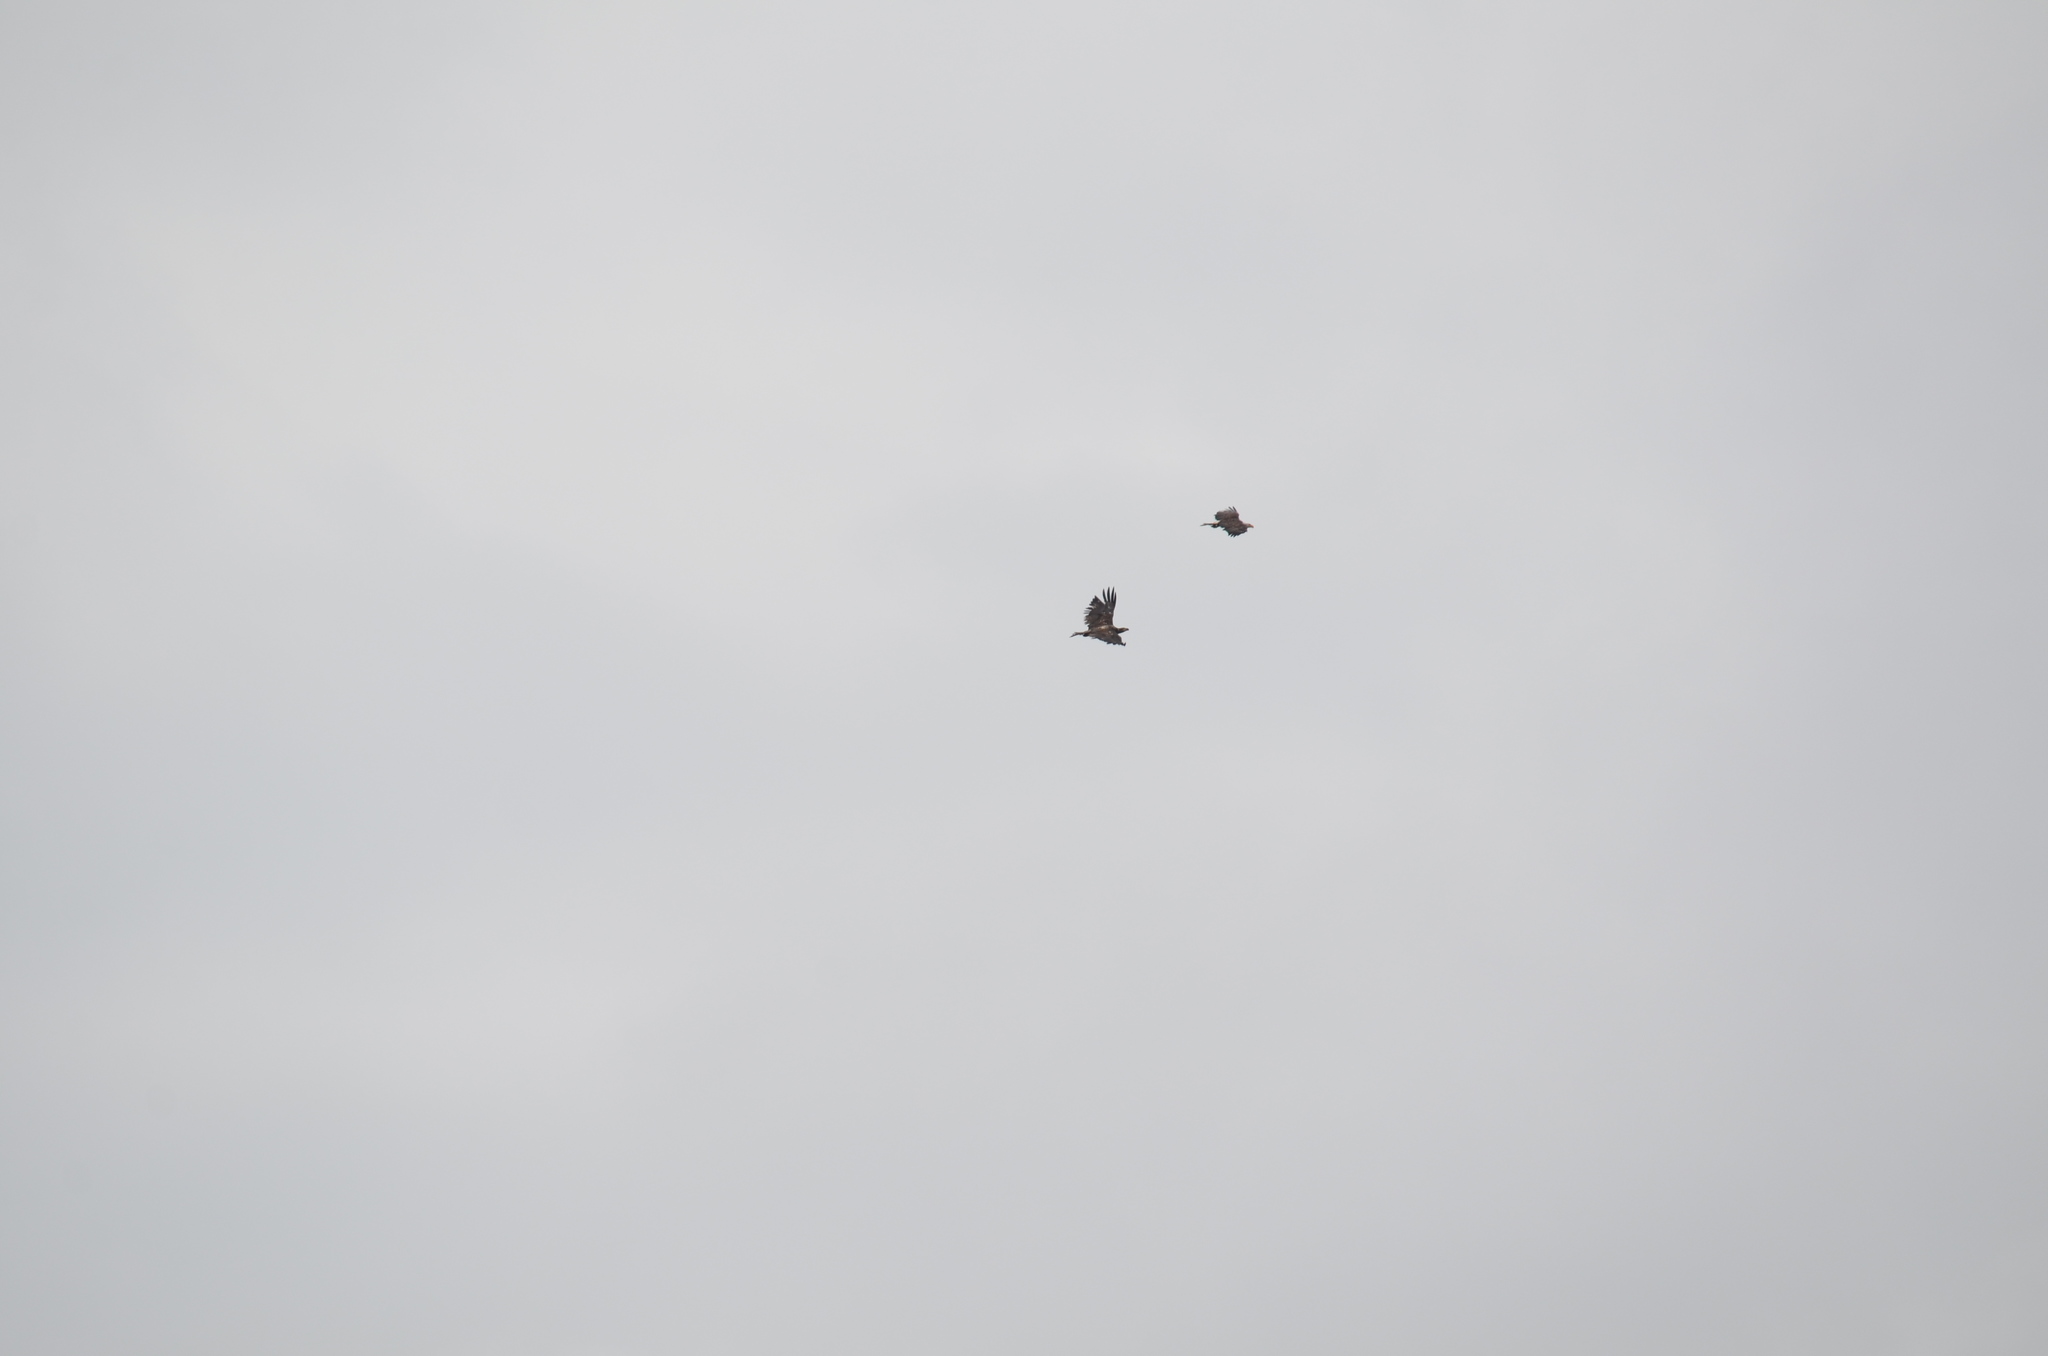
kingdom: Animalia
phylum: Chordata
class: Aves
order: Accipitriformes
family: Accipitridae
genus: Haliaeetus
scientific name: Haliaeetus leucocephalus
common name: Bald eagle
